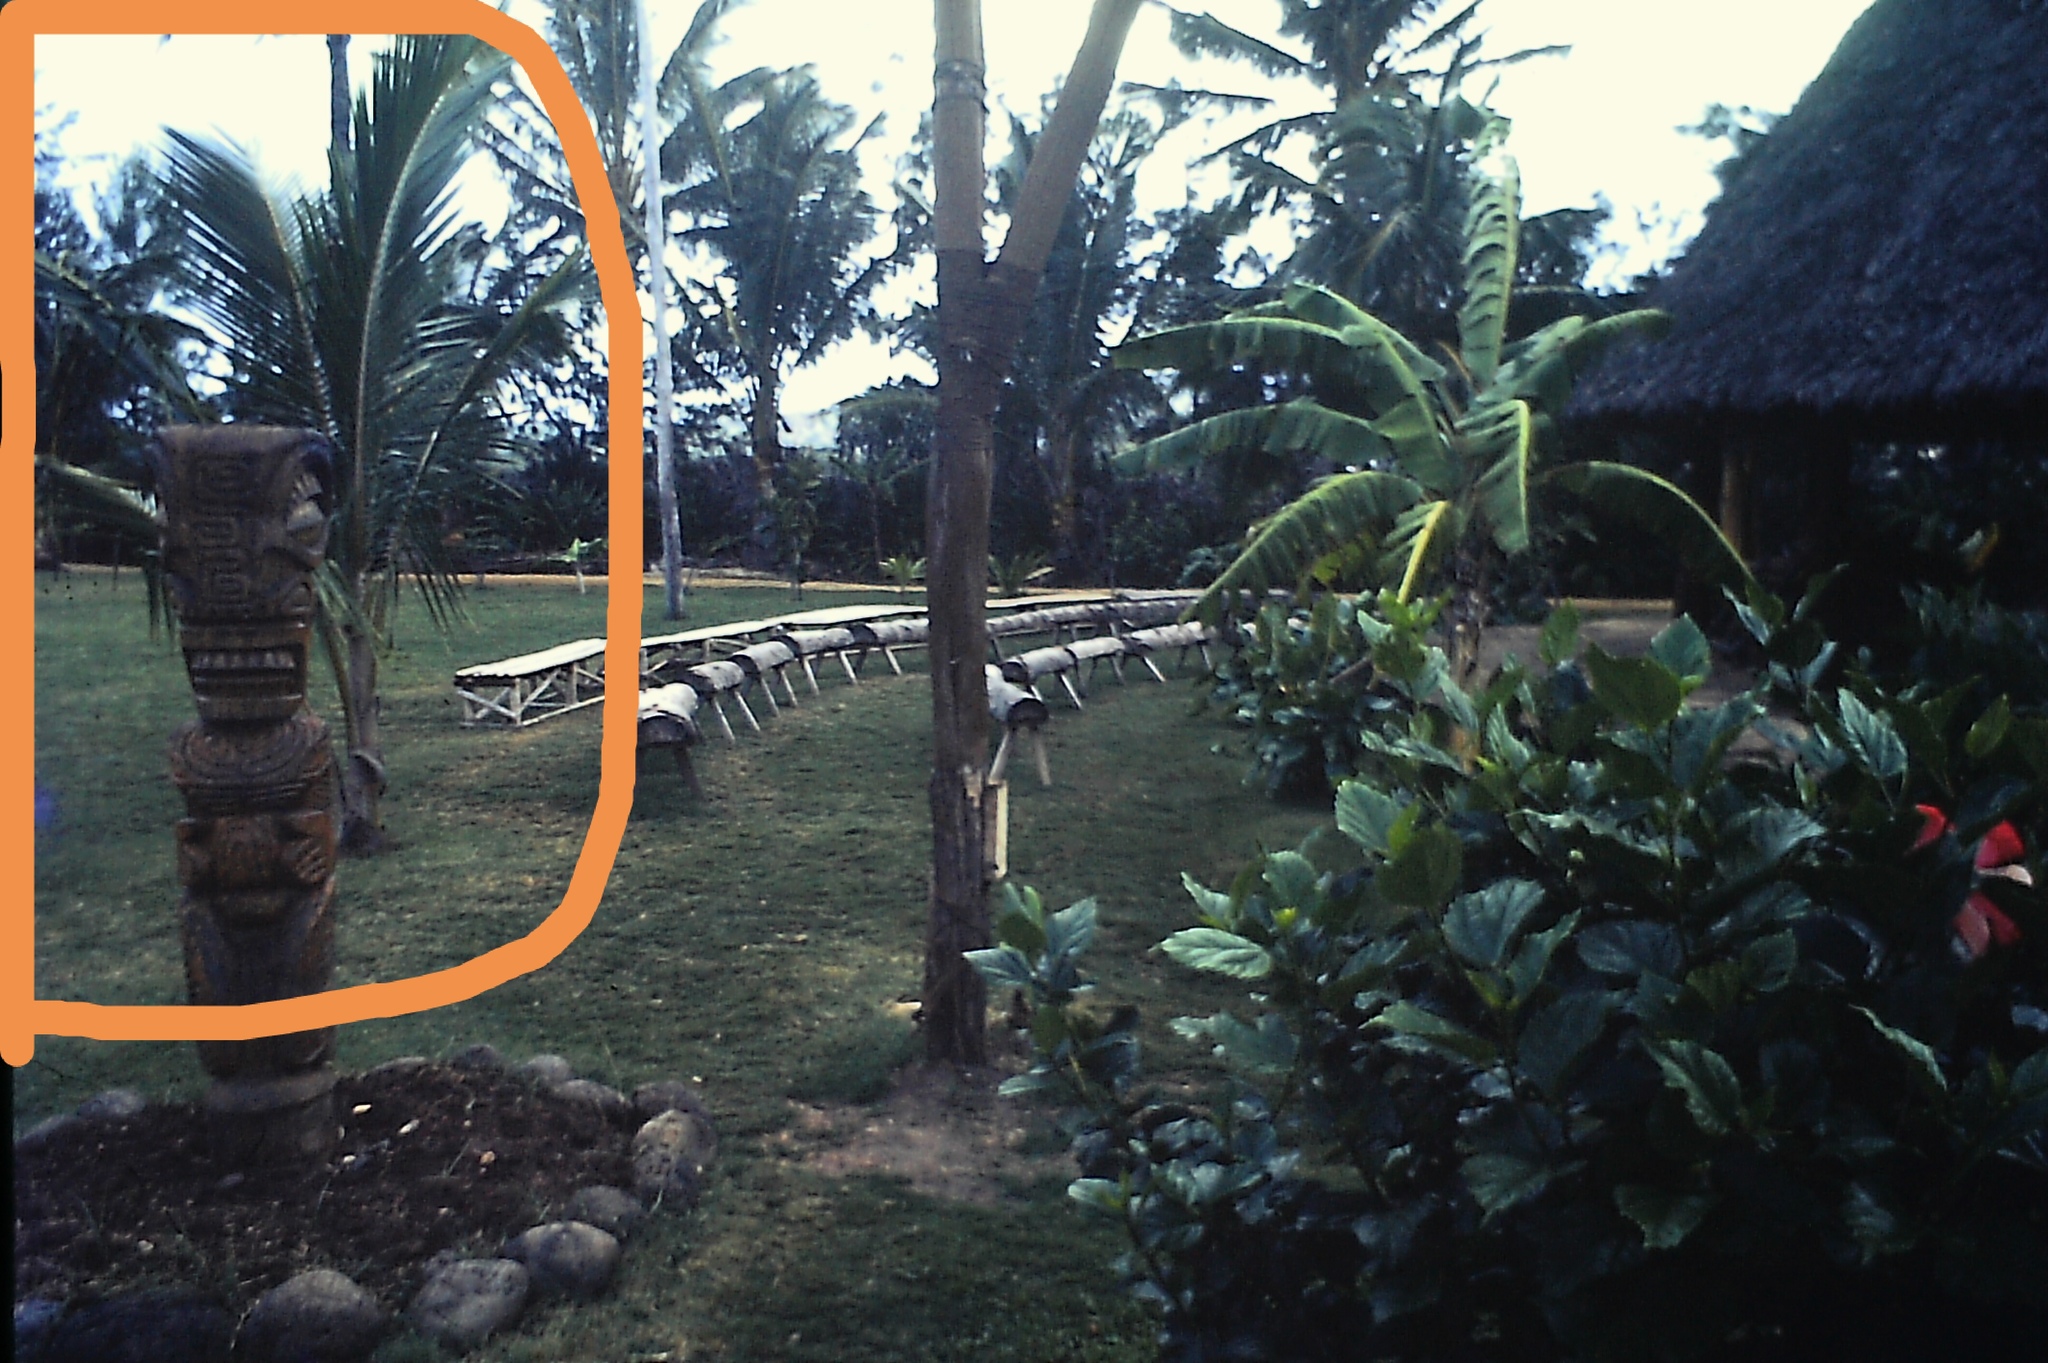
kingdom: Plantae
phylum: Tracheophyta
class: Liliopsida
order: Arecales
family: Arecaceae
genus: Cocos
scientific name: Cocos nucifera
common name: Coconut palm
